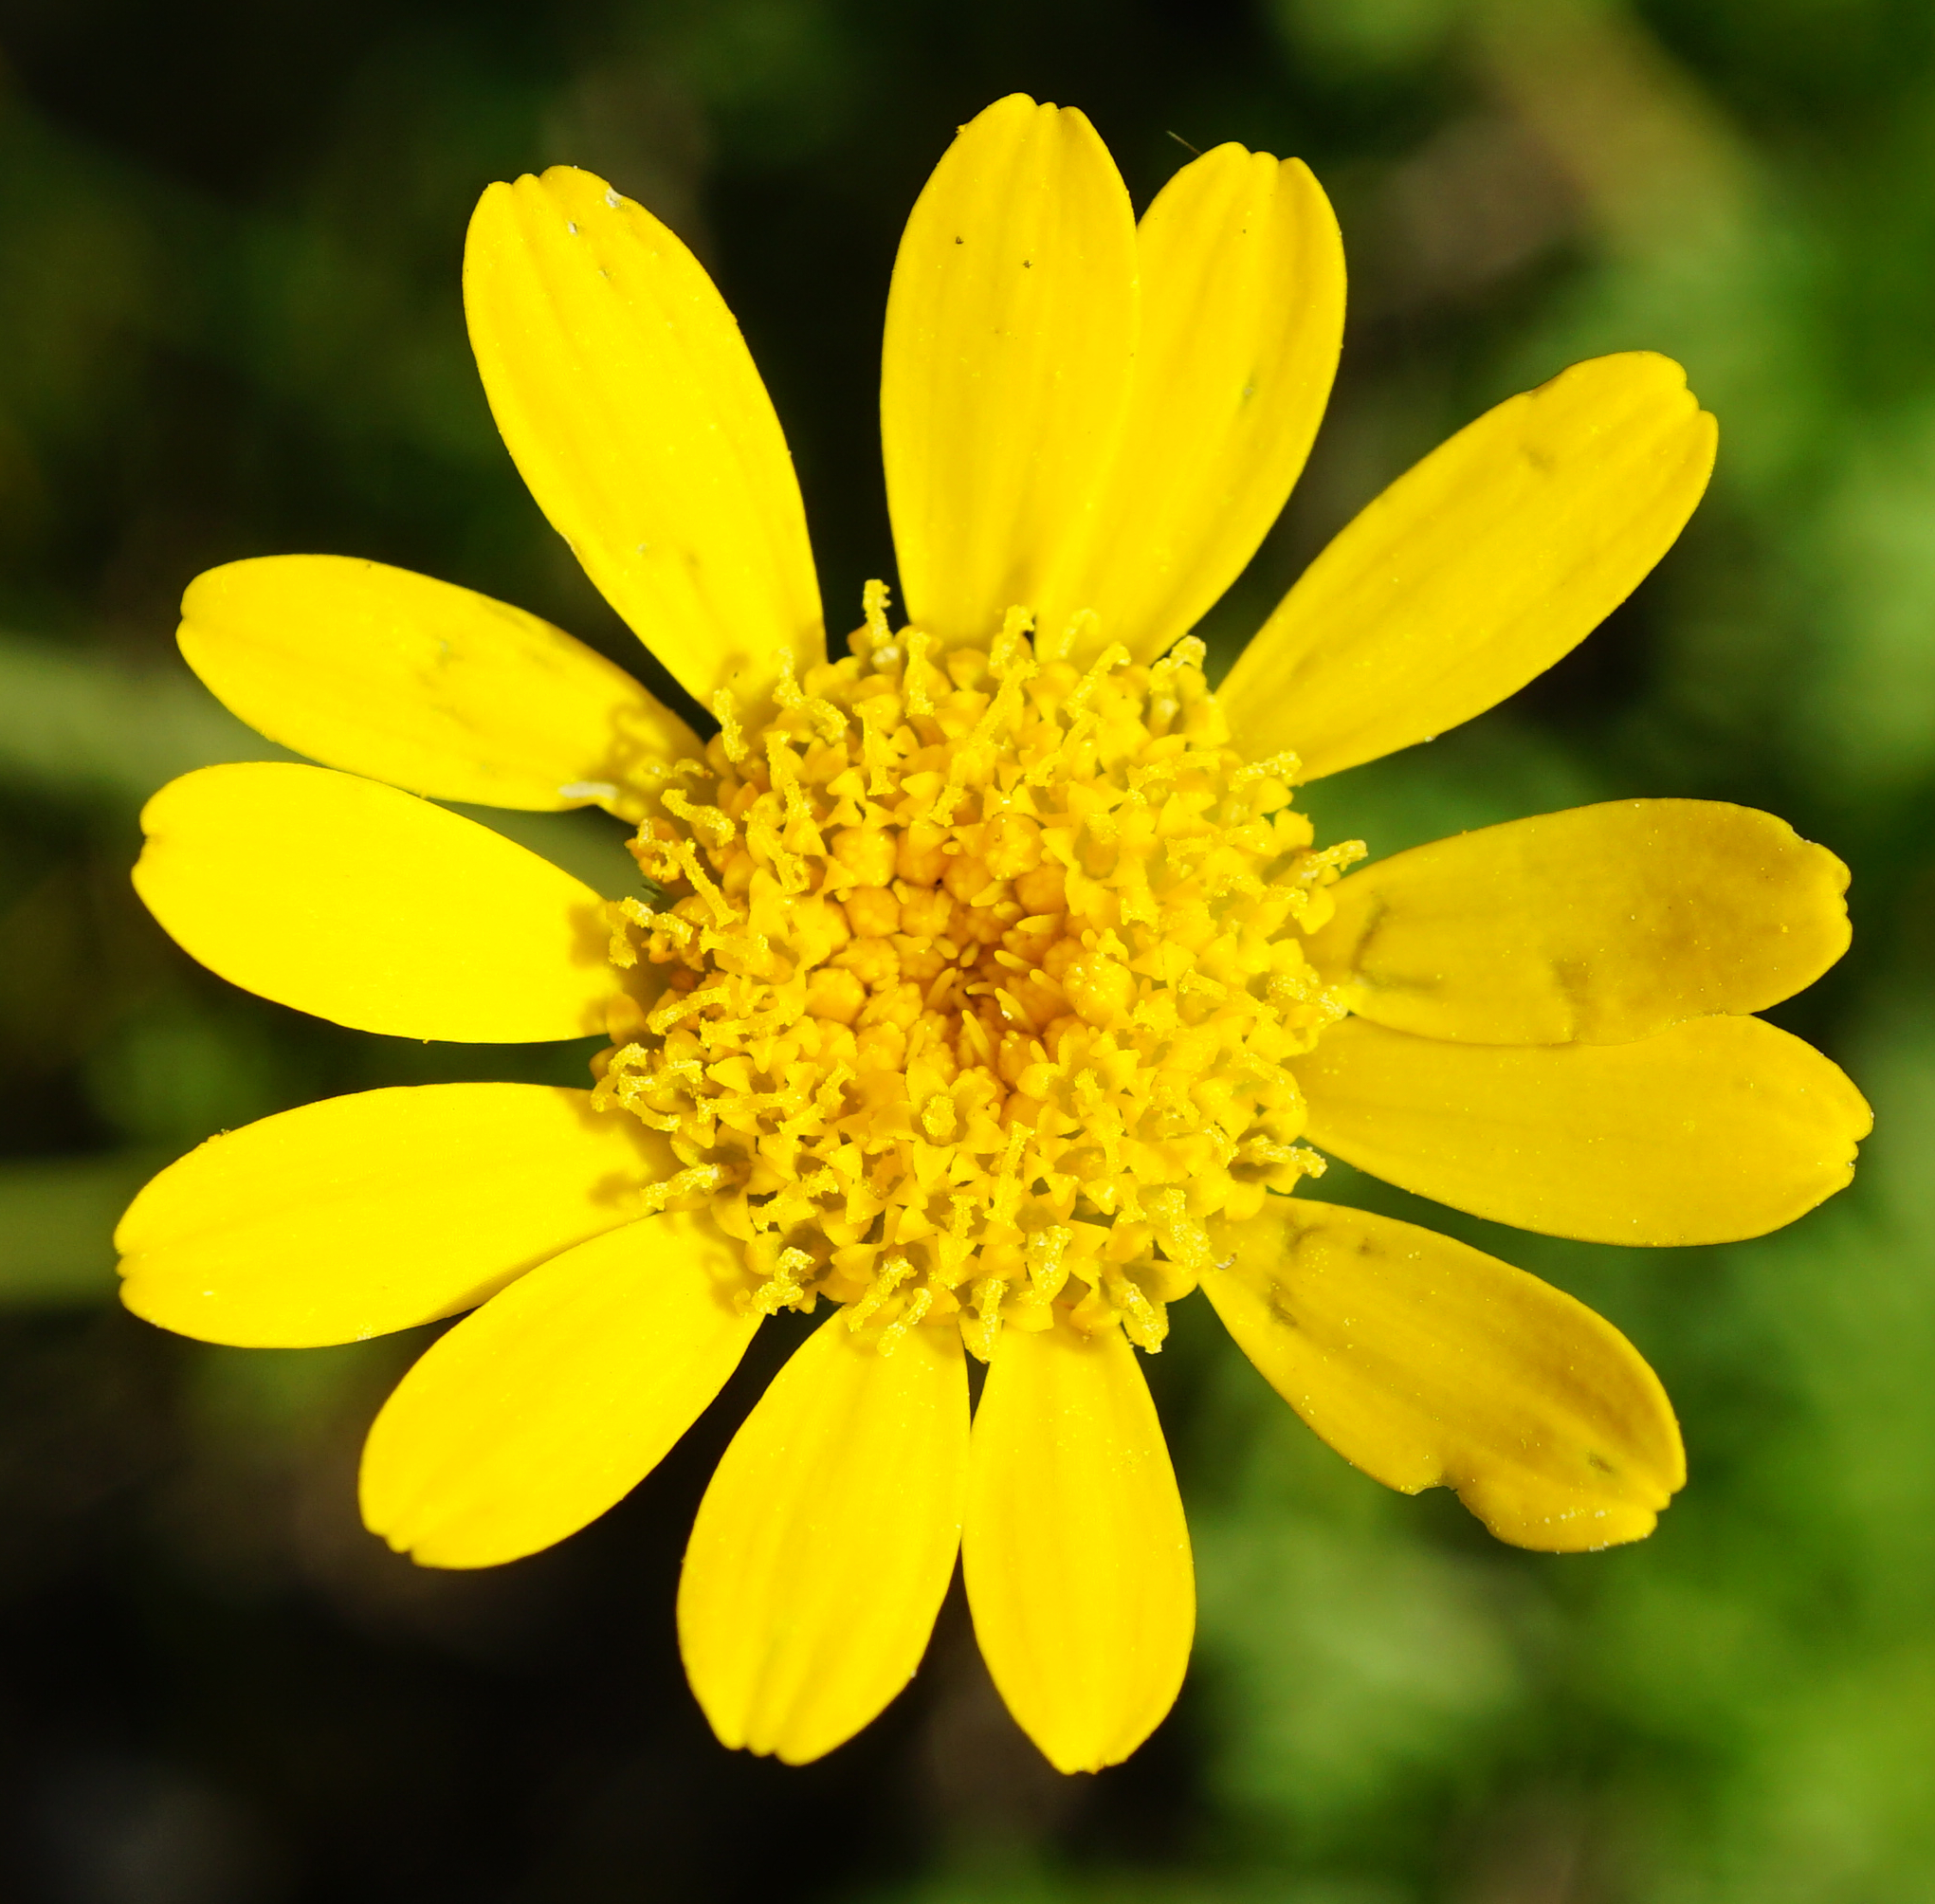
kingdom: Plantae
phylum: Tracheophyta
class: Magnoliopsida
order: Asterales
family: Asteraceae
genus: Cota
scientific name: Cota tinctoria
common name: Golden chamomile
